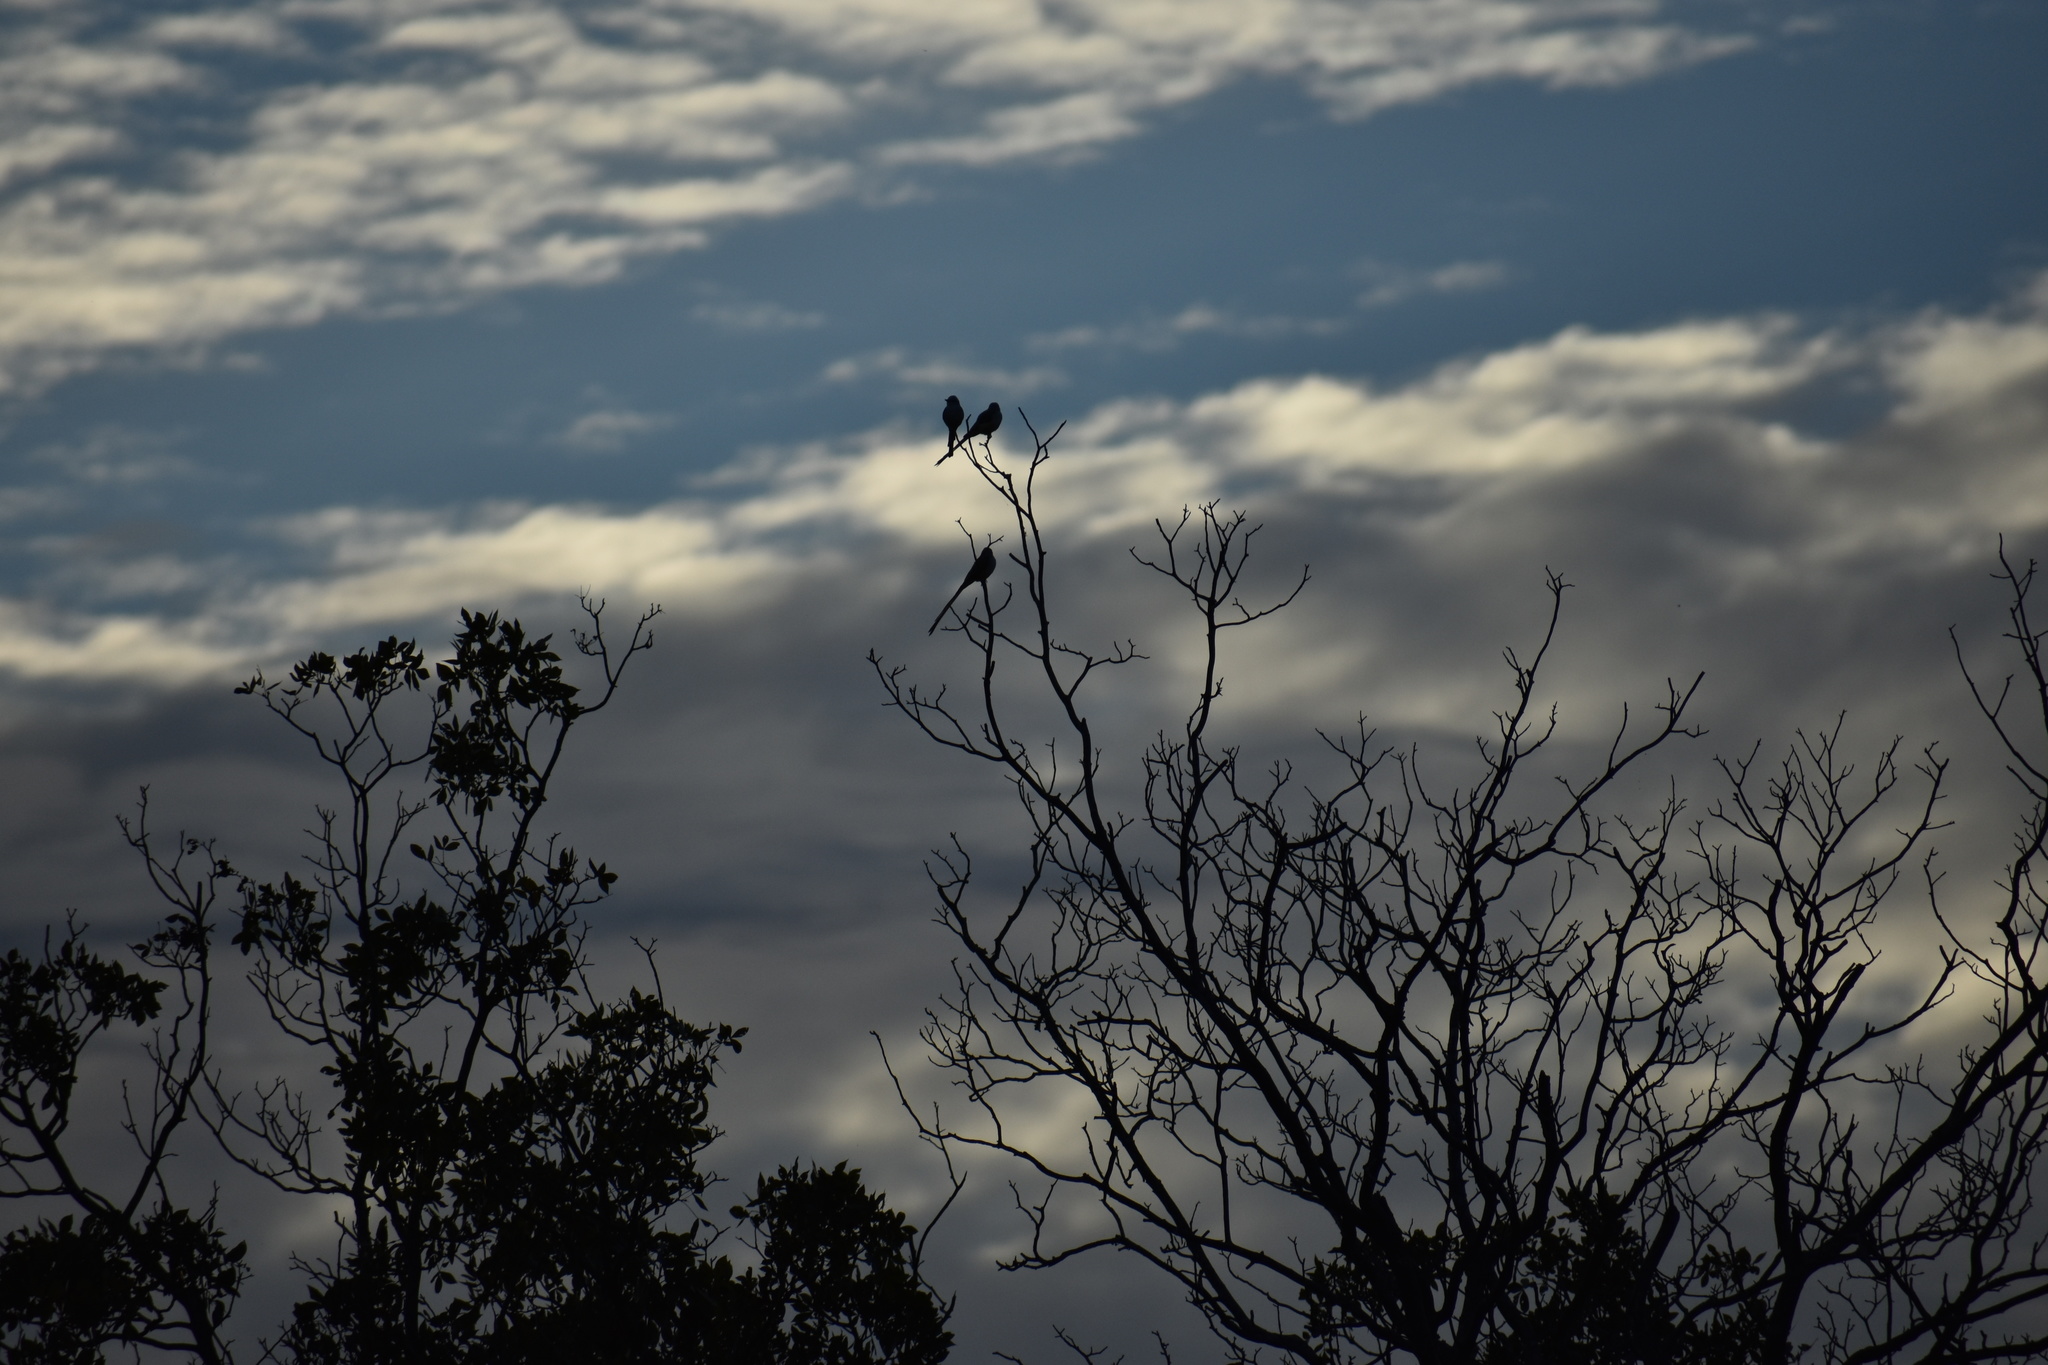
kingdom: Animalia
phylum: Chordata
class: Aves
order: Passeriformes
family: Tyrannidae
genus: Tyrannus
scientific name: Tyrannus forficatus
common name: Scissor-tailed flycatcher
